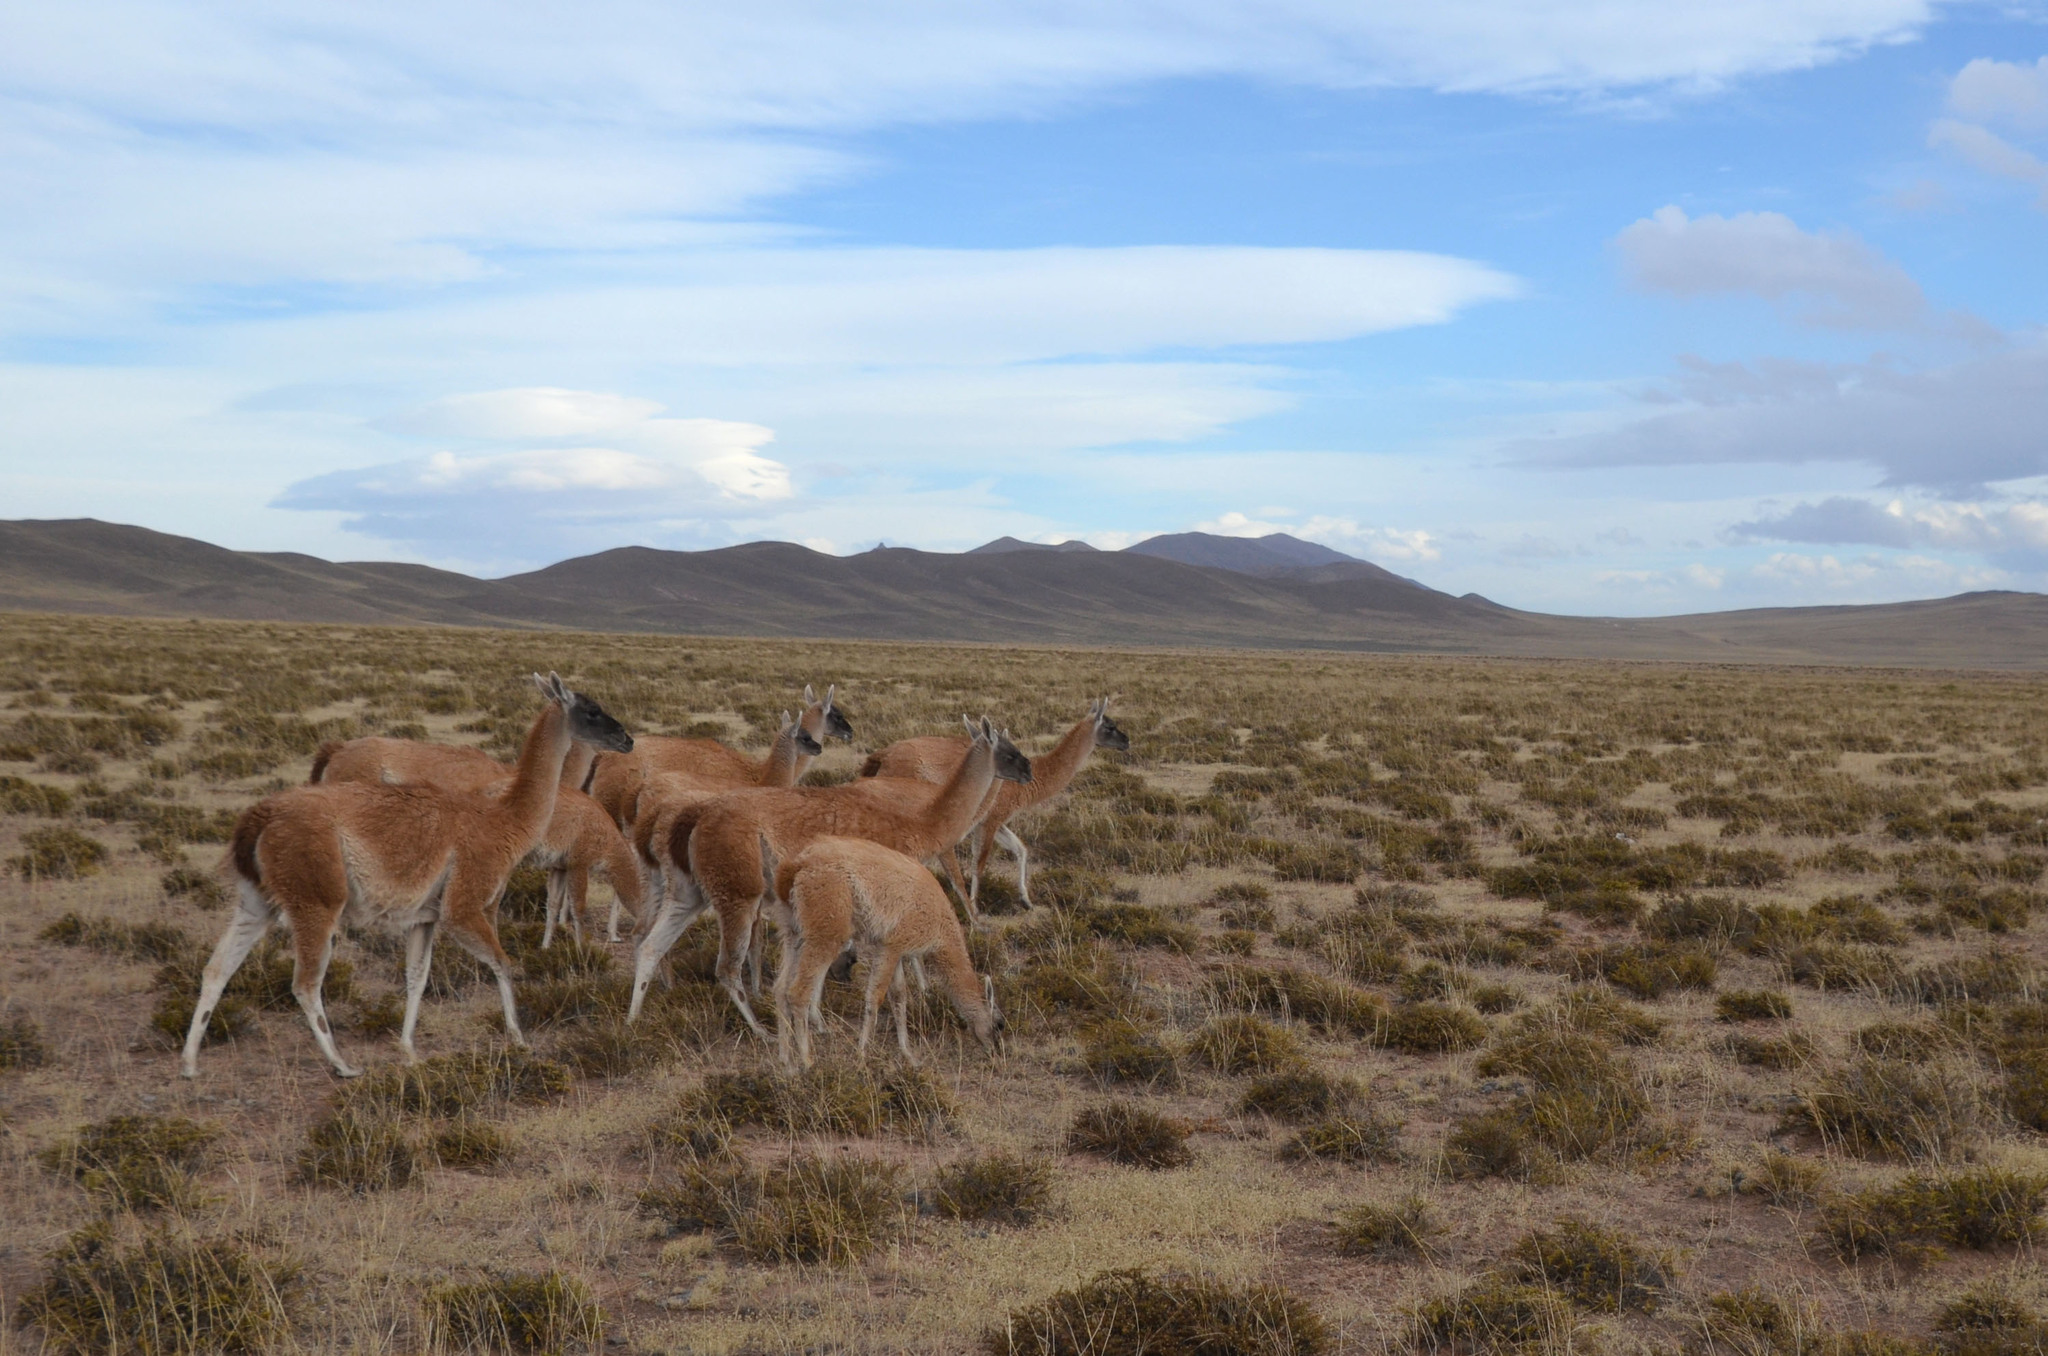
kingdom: Animalia
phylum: Chordata
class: Mammalia
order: Artiodactyla
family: Camelidae
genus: Lama
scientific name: Lama glama
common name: Llama
